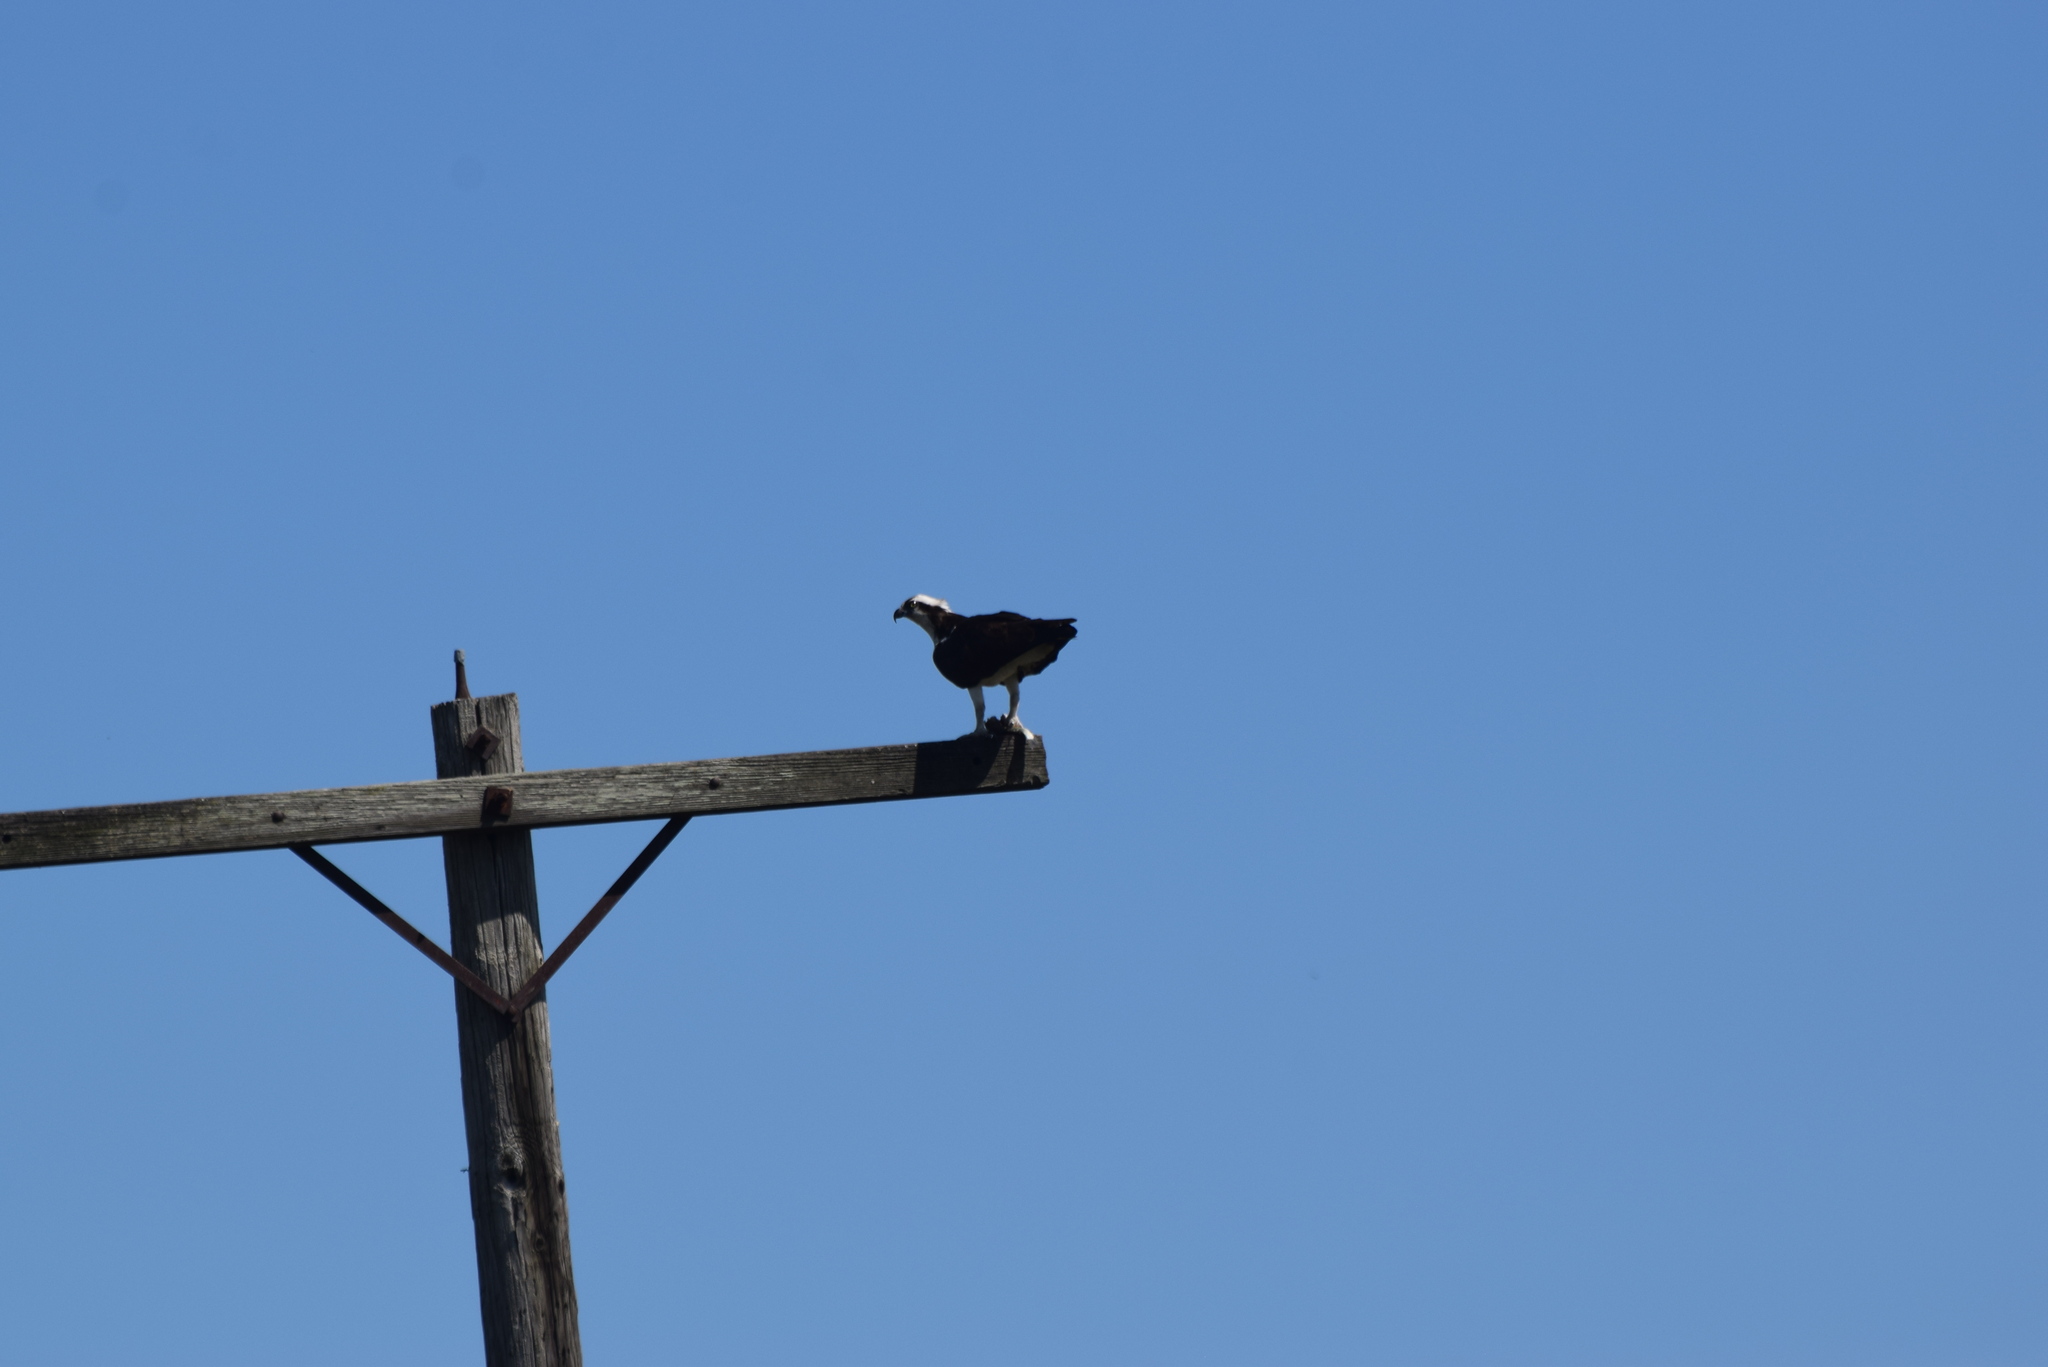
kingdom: Animalia
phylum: Chordata
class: Aves
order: Accipitriformes
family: Pandionidae
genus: Pandion
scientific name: Pandion haliaetus
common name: Osprey
